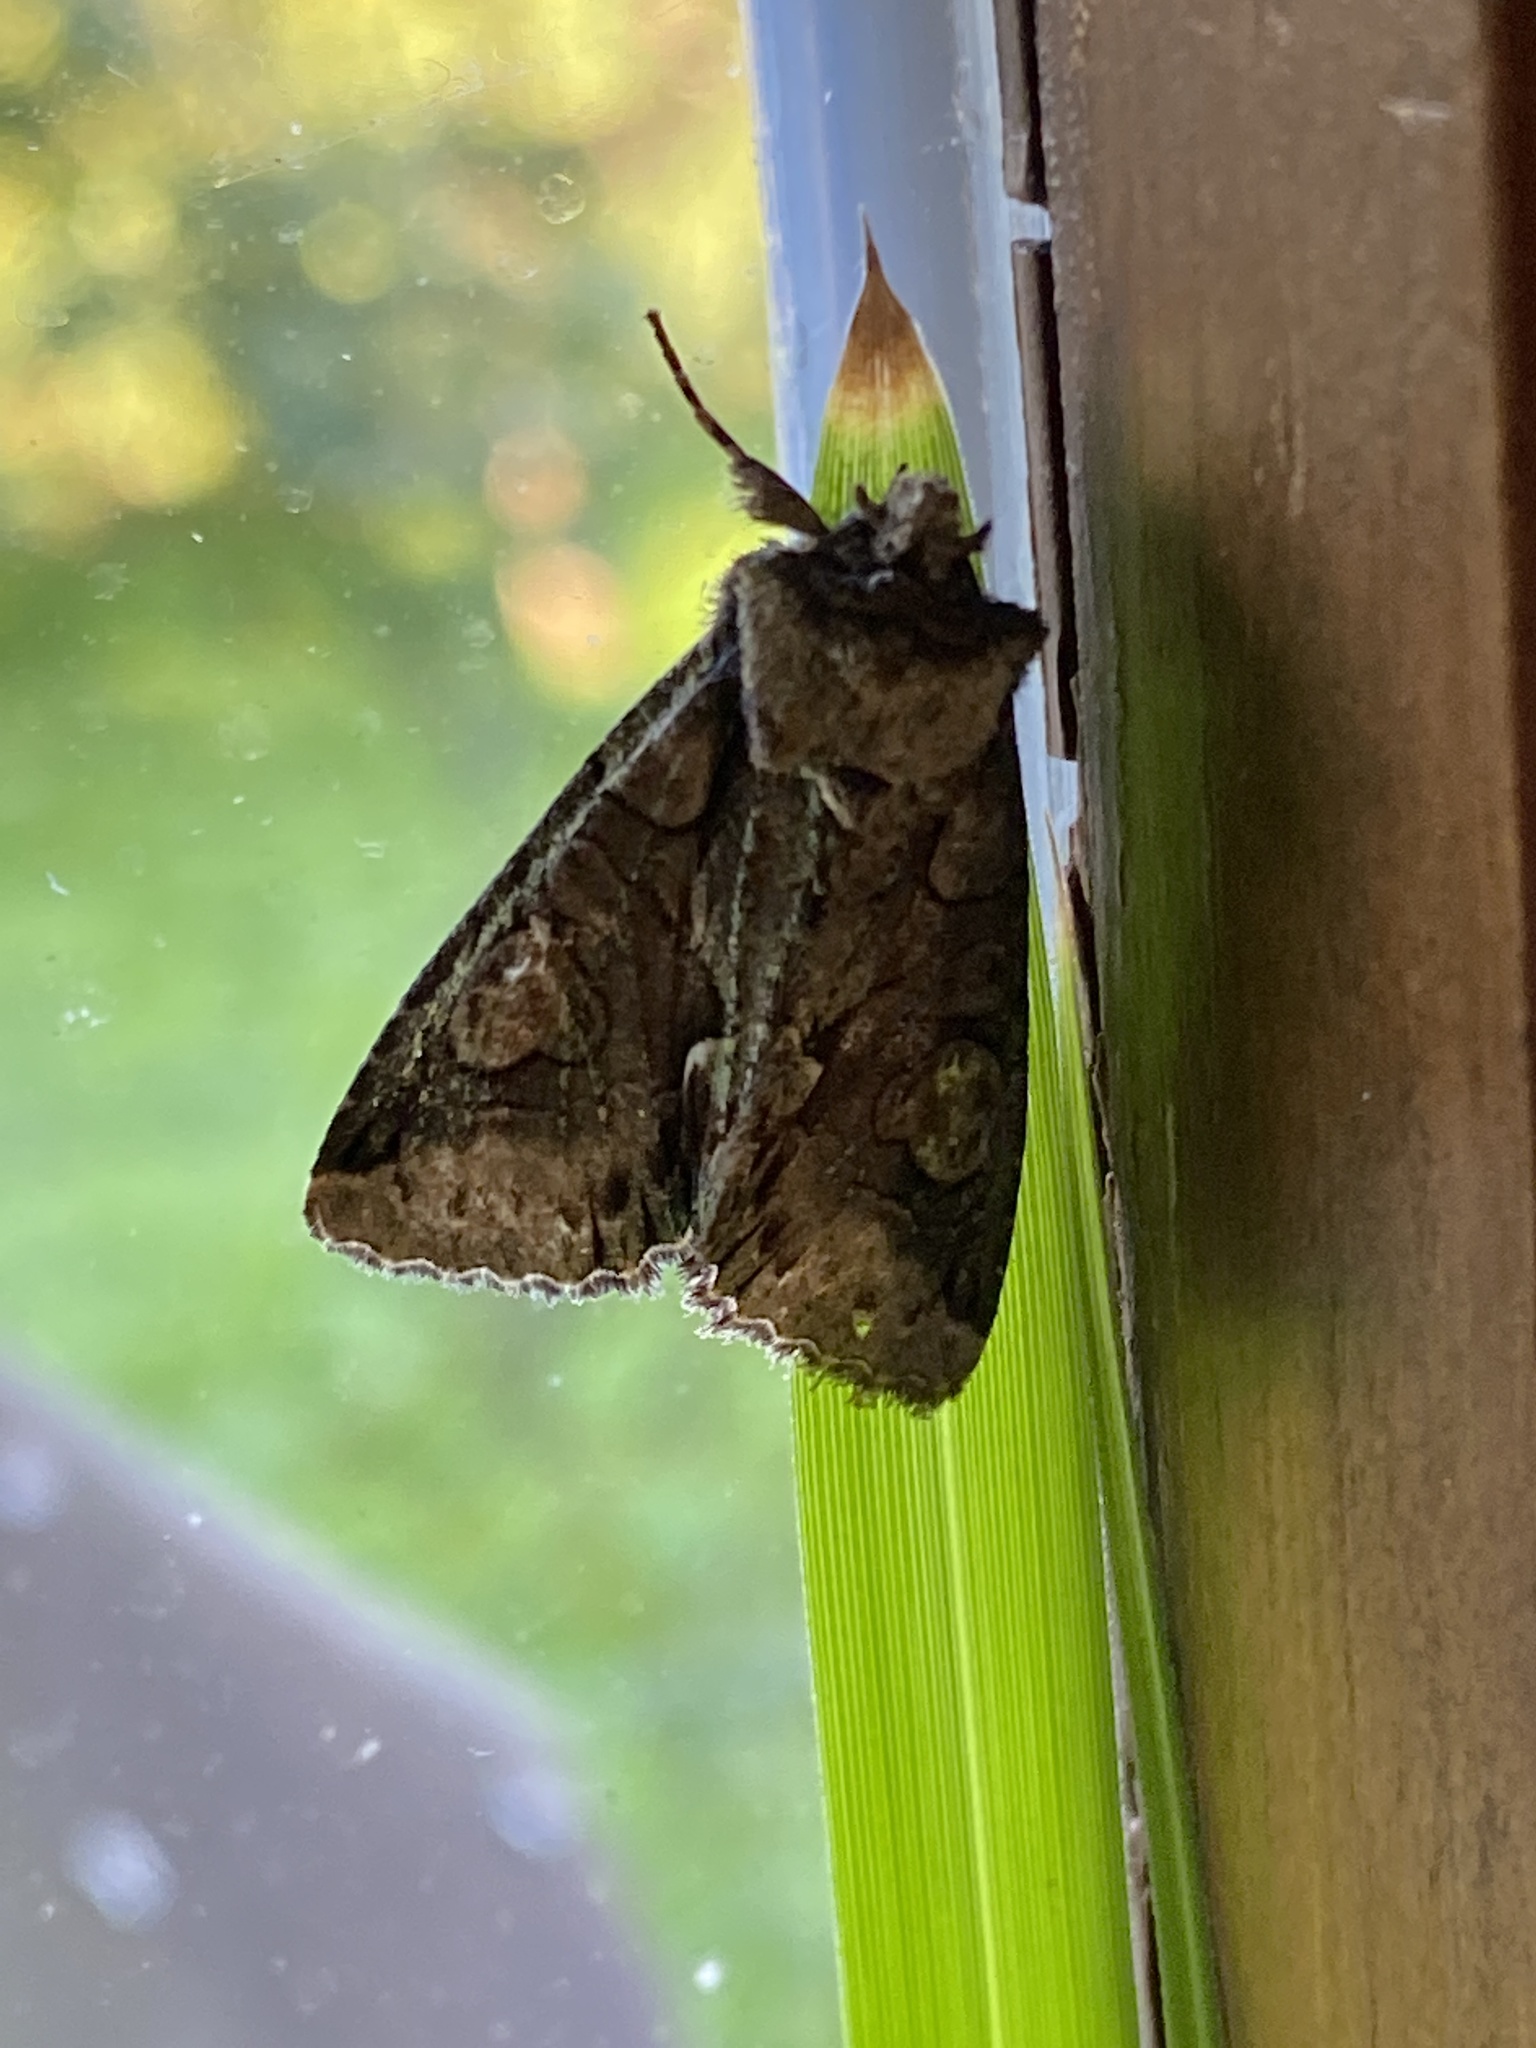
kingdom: Animalia
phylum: Arthropoda
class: Insecta
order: Lepidoptera
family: Noctuidae
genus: Allophyes
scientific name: Allophyes oxyacanthae
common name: Green-brindled crescent
